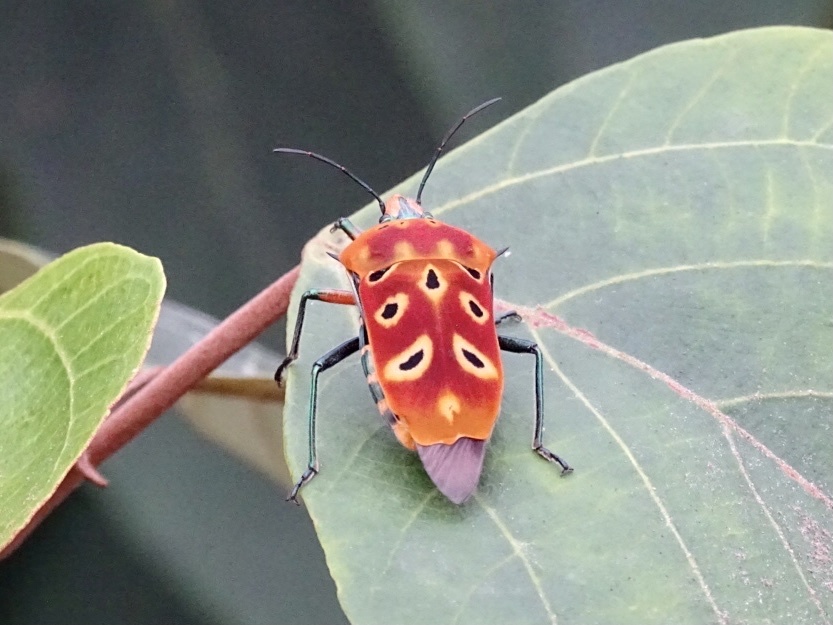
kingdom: Animalia
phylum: Arthropoda
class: Insecta
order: Hemiptera
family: Scutelleridae
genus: Cantao
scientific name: Cantao ocellatus
